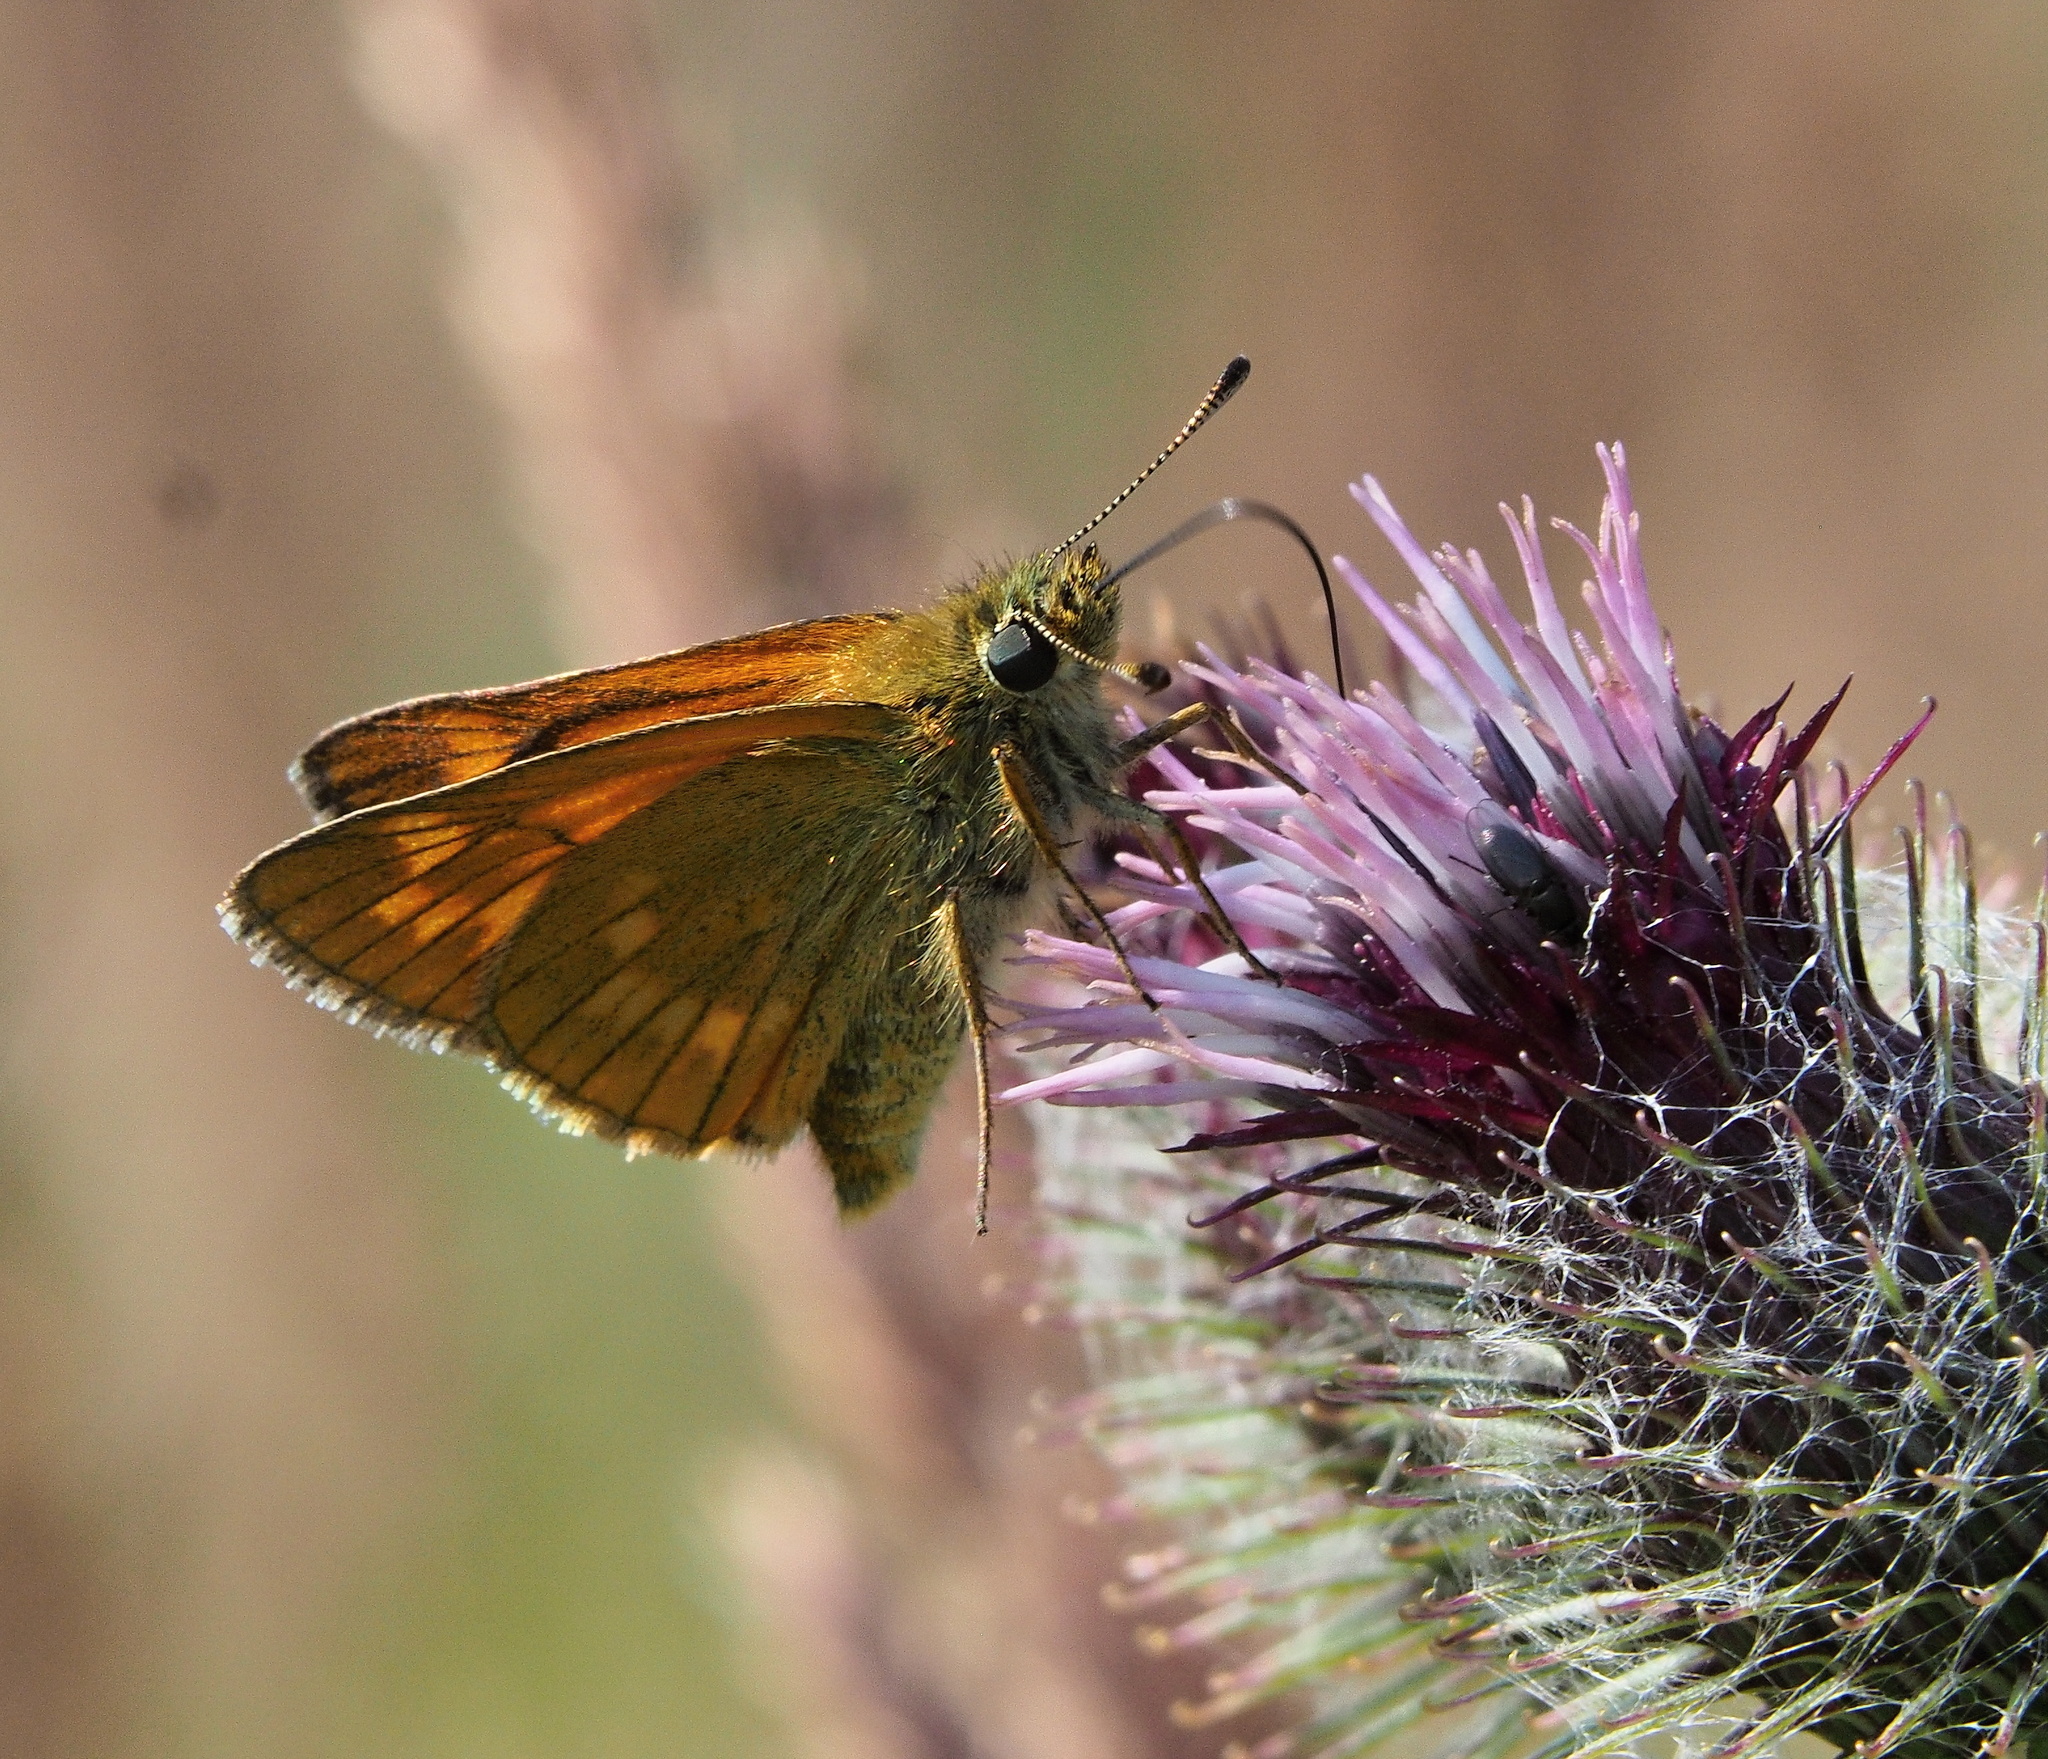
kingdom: Animalia
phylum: Arthropoda
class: Insecta
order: Lepidoptera
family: Hesperiidae
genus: Ochlodes
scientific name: Ochlodes venata
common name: Large skipper
